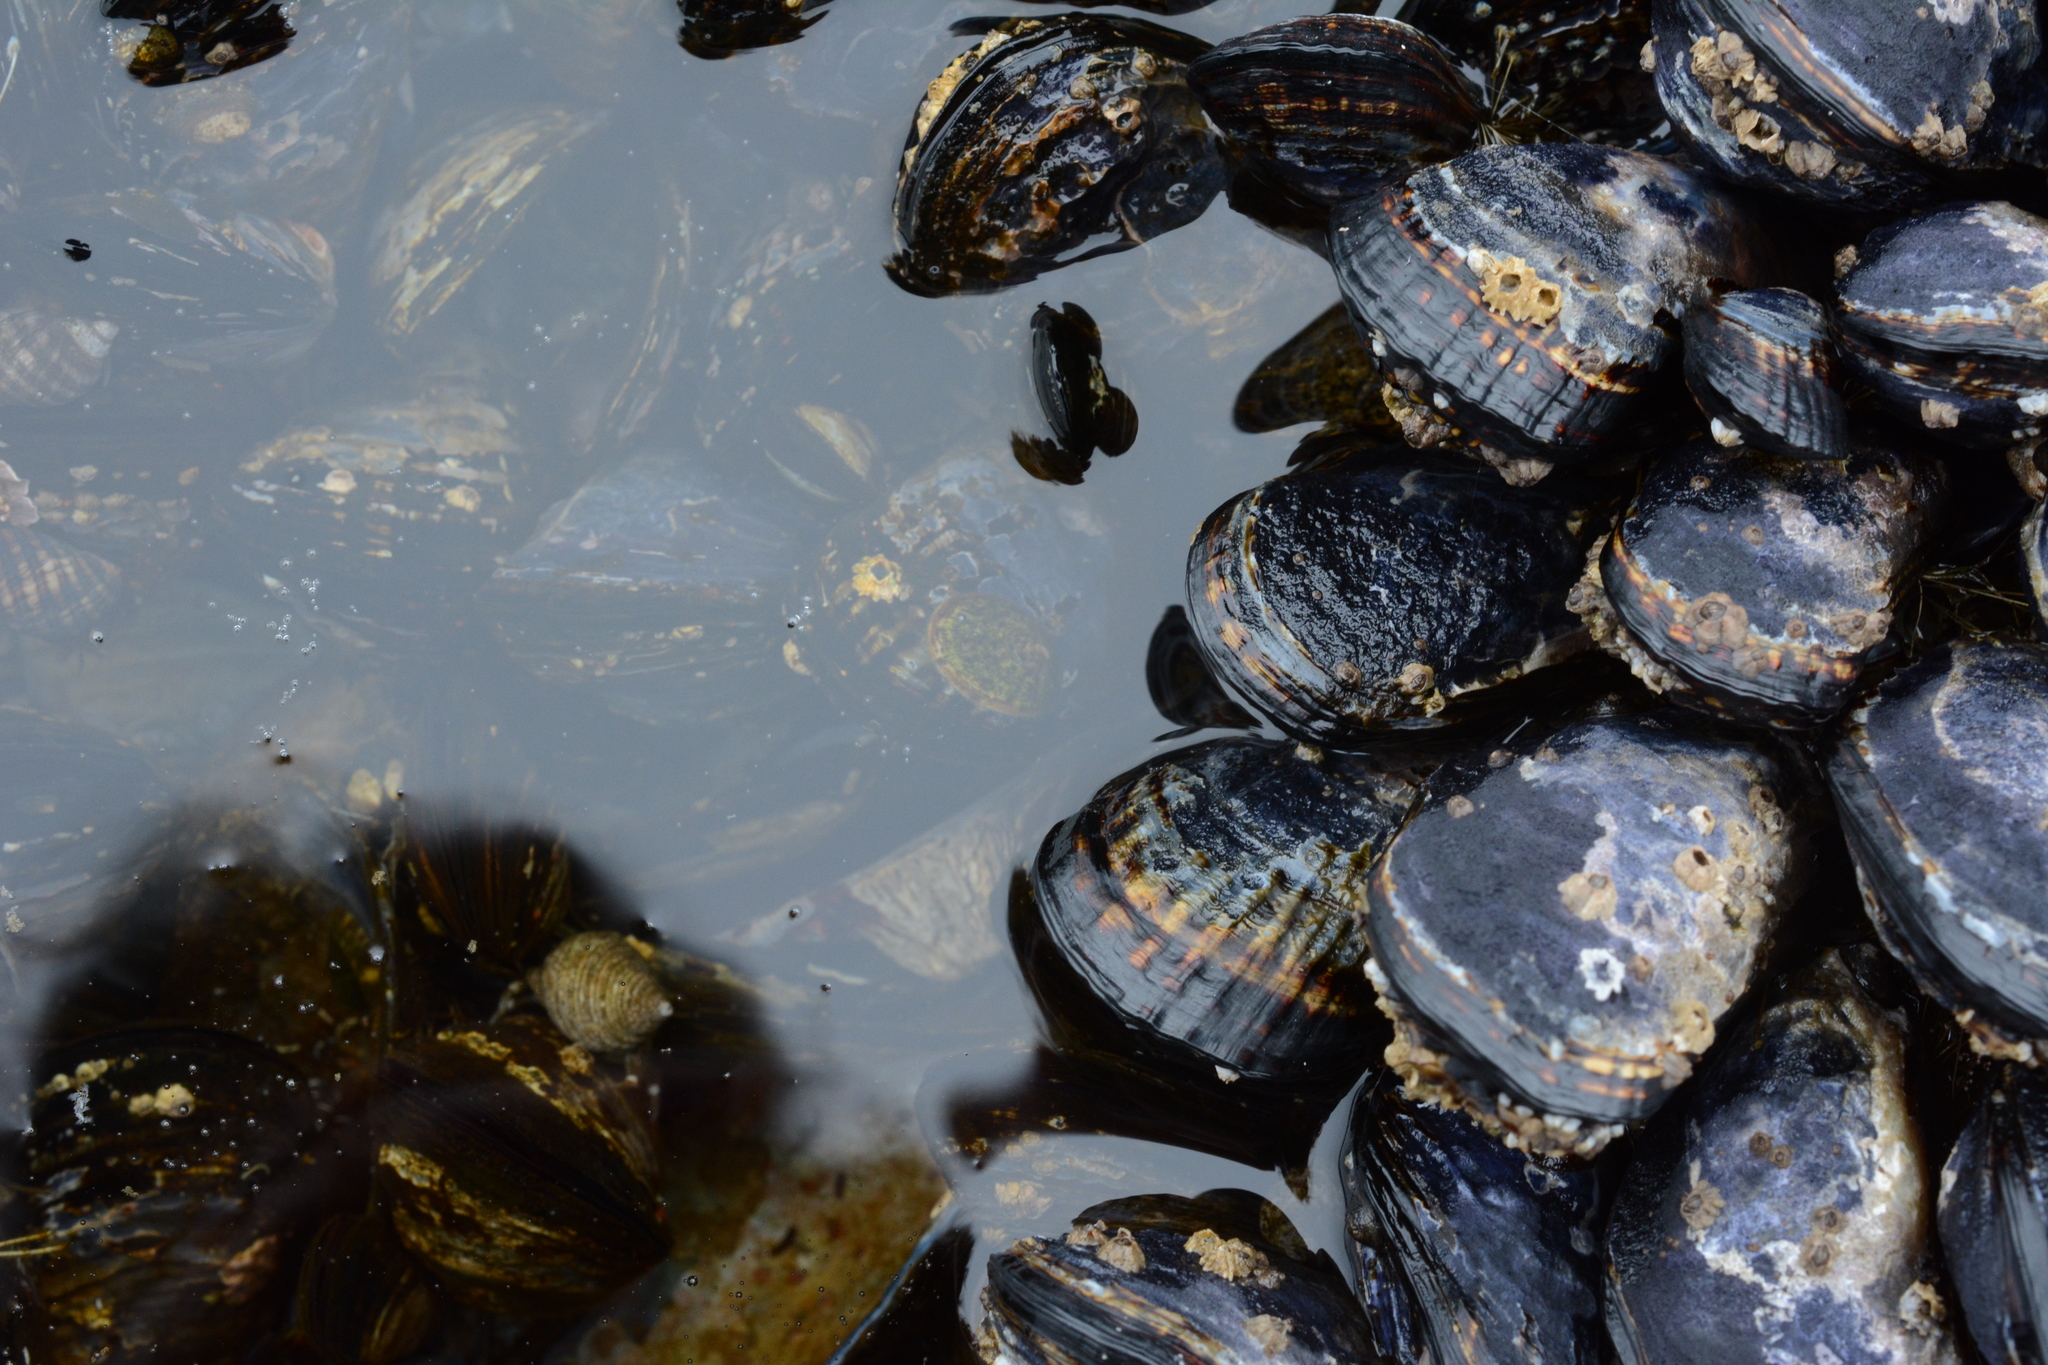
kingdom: Animalia
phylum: Mollusca
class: Bivalvia
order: Mytilida
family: Mytilidae
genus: Mytilus
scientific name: Mytilus californianus
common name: California mussel
